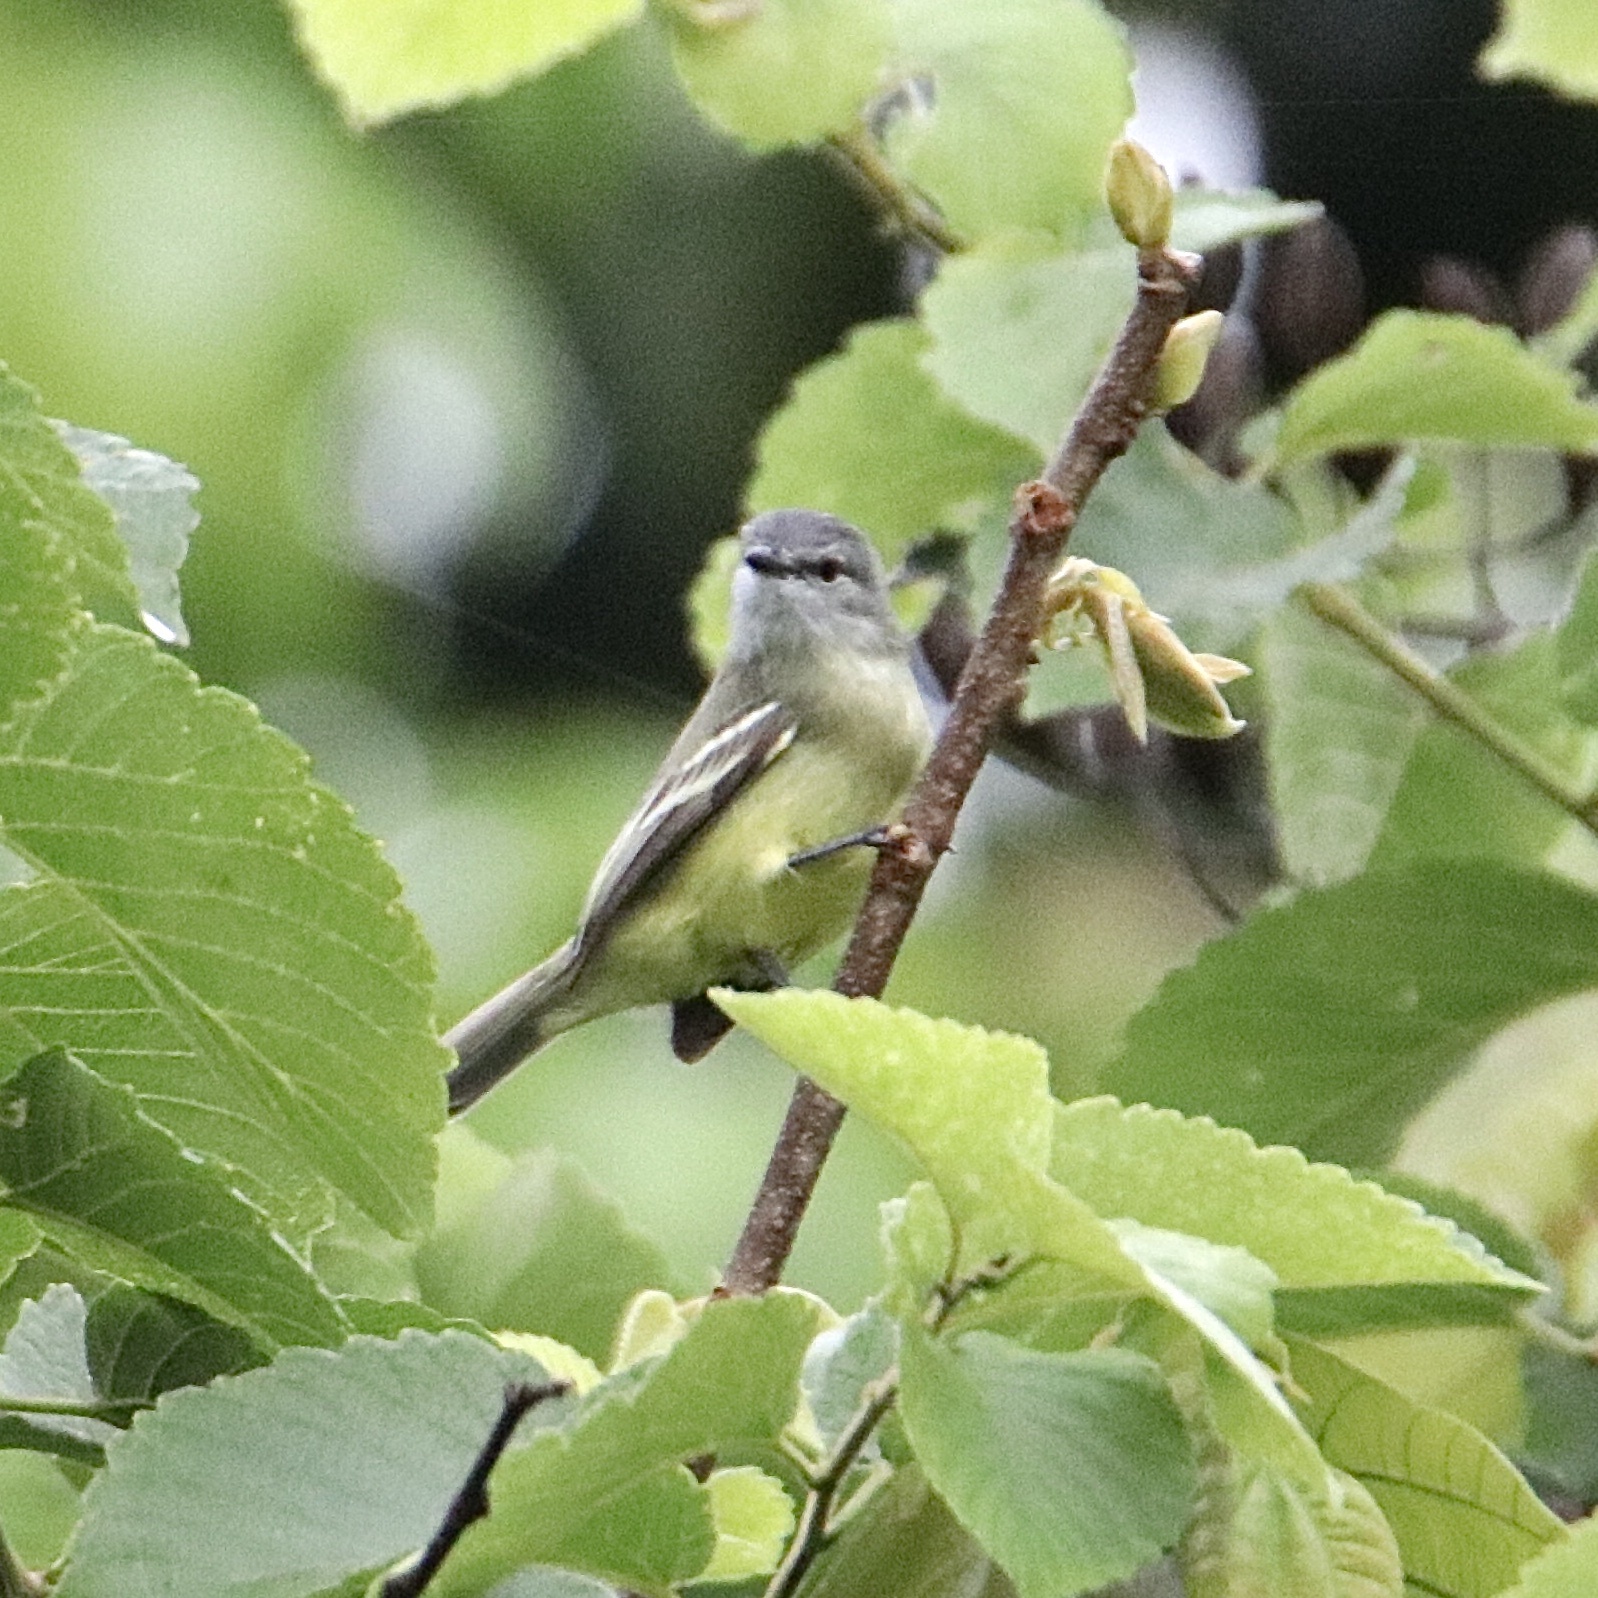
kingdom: Animalia
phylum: Chordata
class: Aves
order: Passeriformes
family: Tyrannidae
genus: Tyrannulus
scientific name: Tyrannulus elatus
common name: Yellow-crowned tyrannulet
